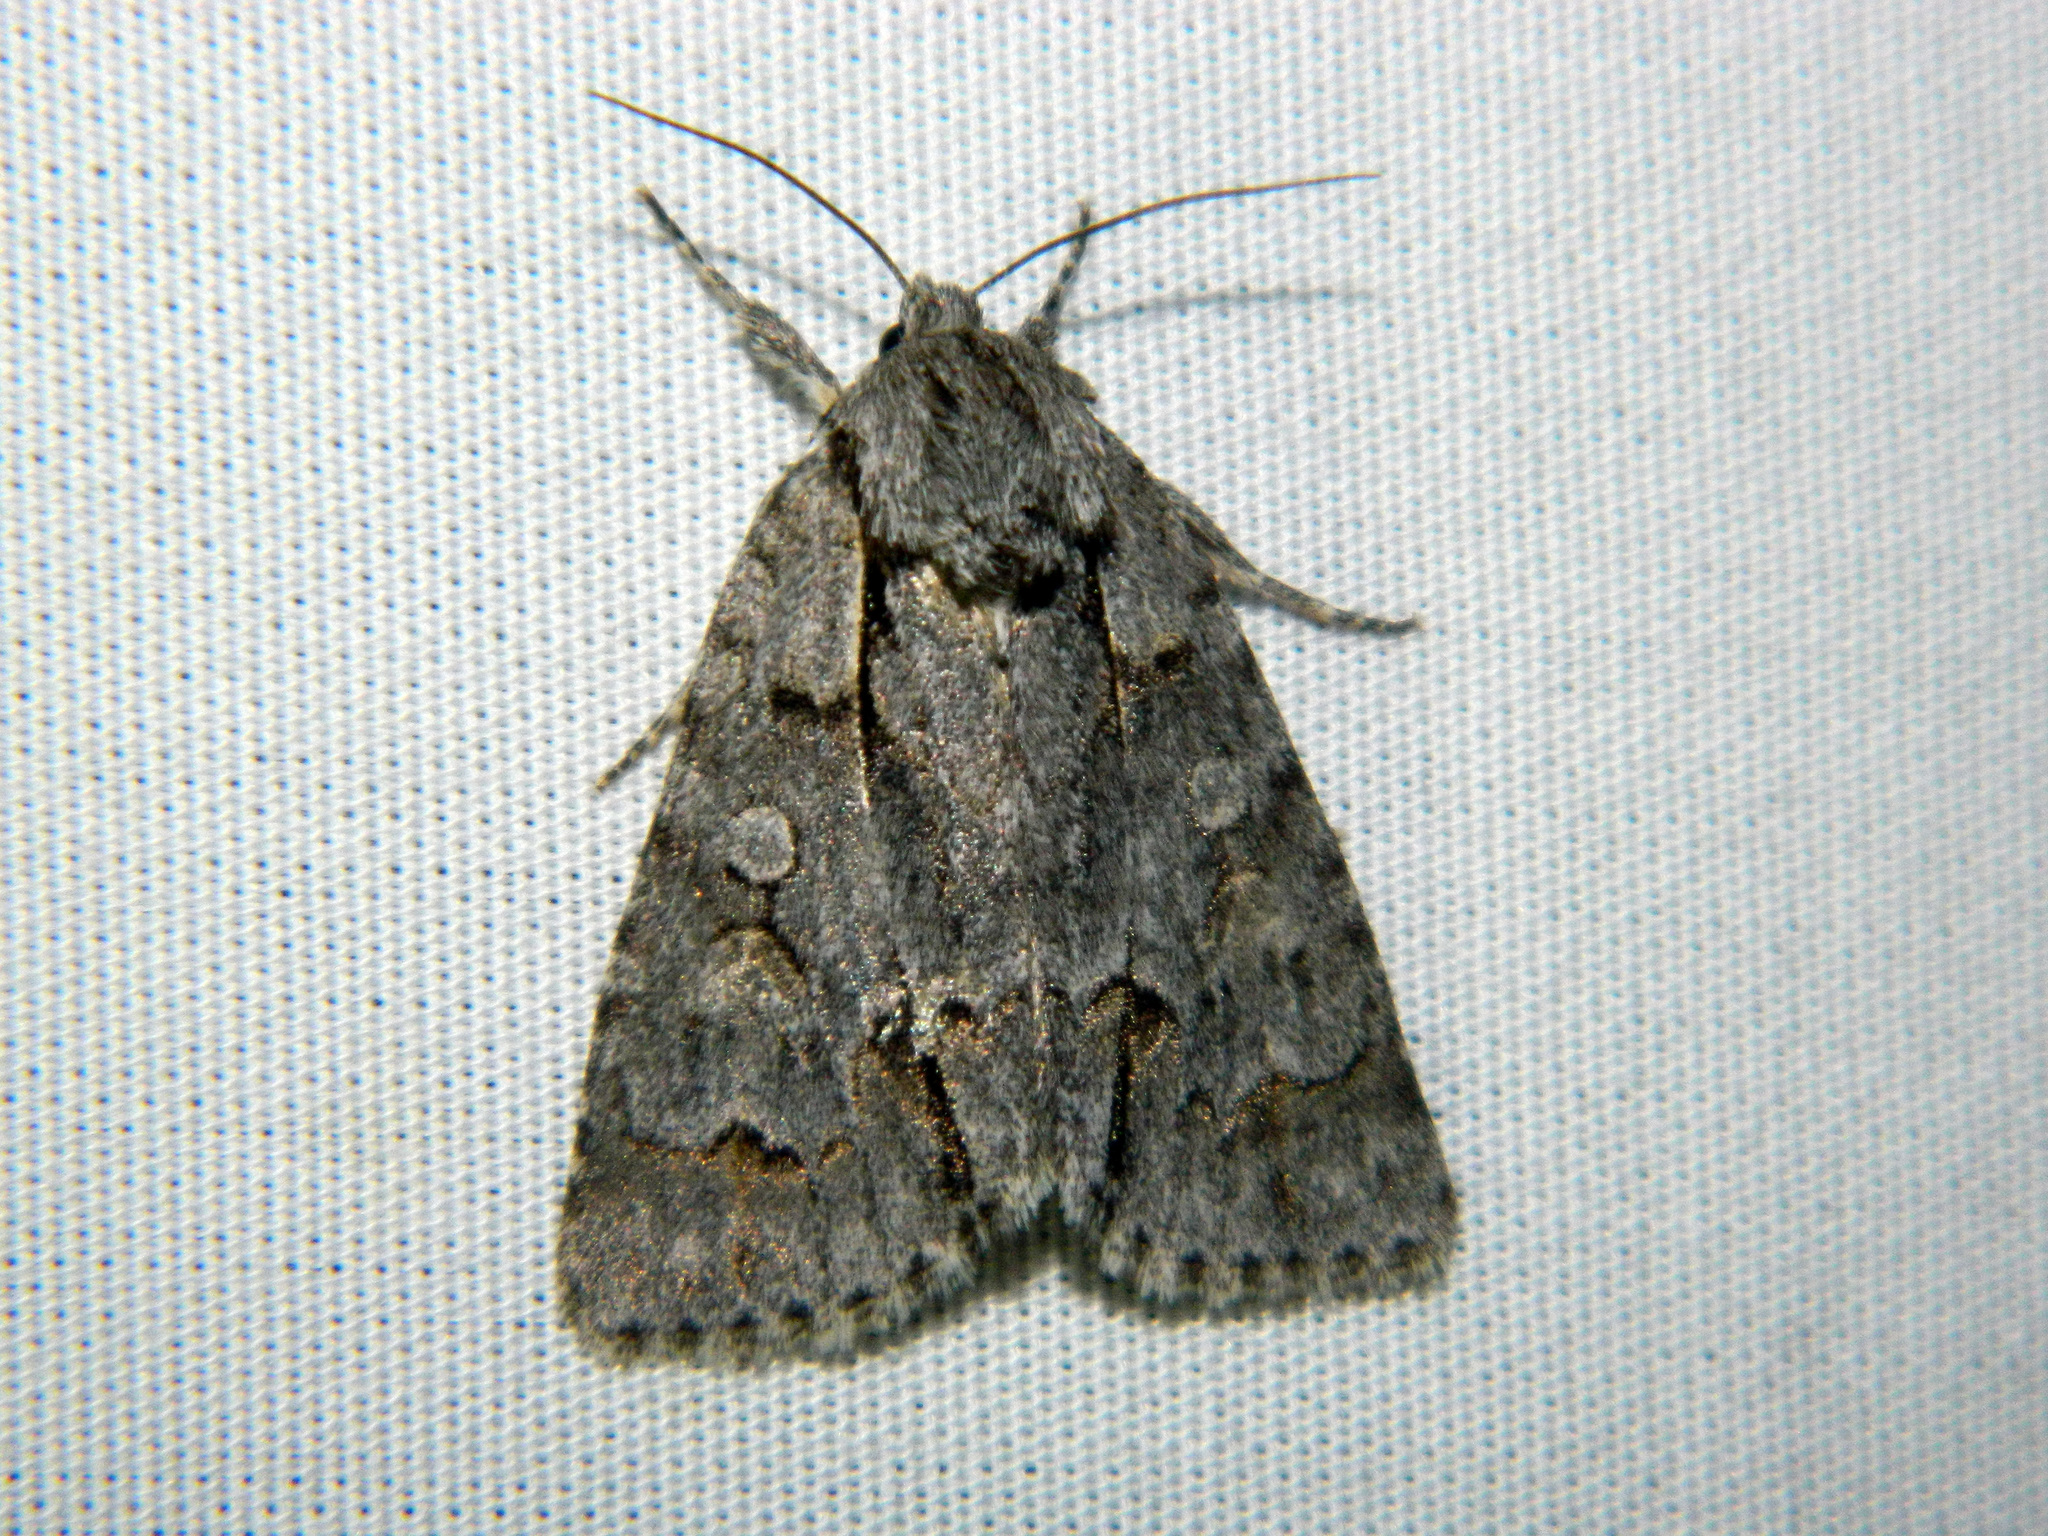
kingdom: Animalia
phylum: Arthropoda
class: Insecta
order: Lepidoptera
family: Noctuidae
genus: Acronicta
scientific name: Acronicta grisea
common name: Gray dagger
